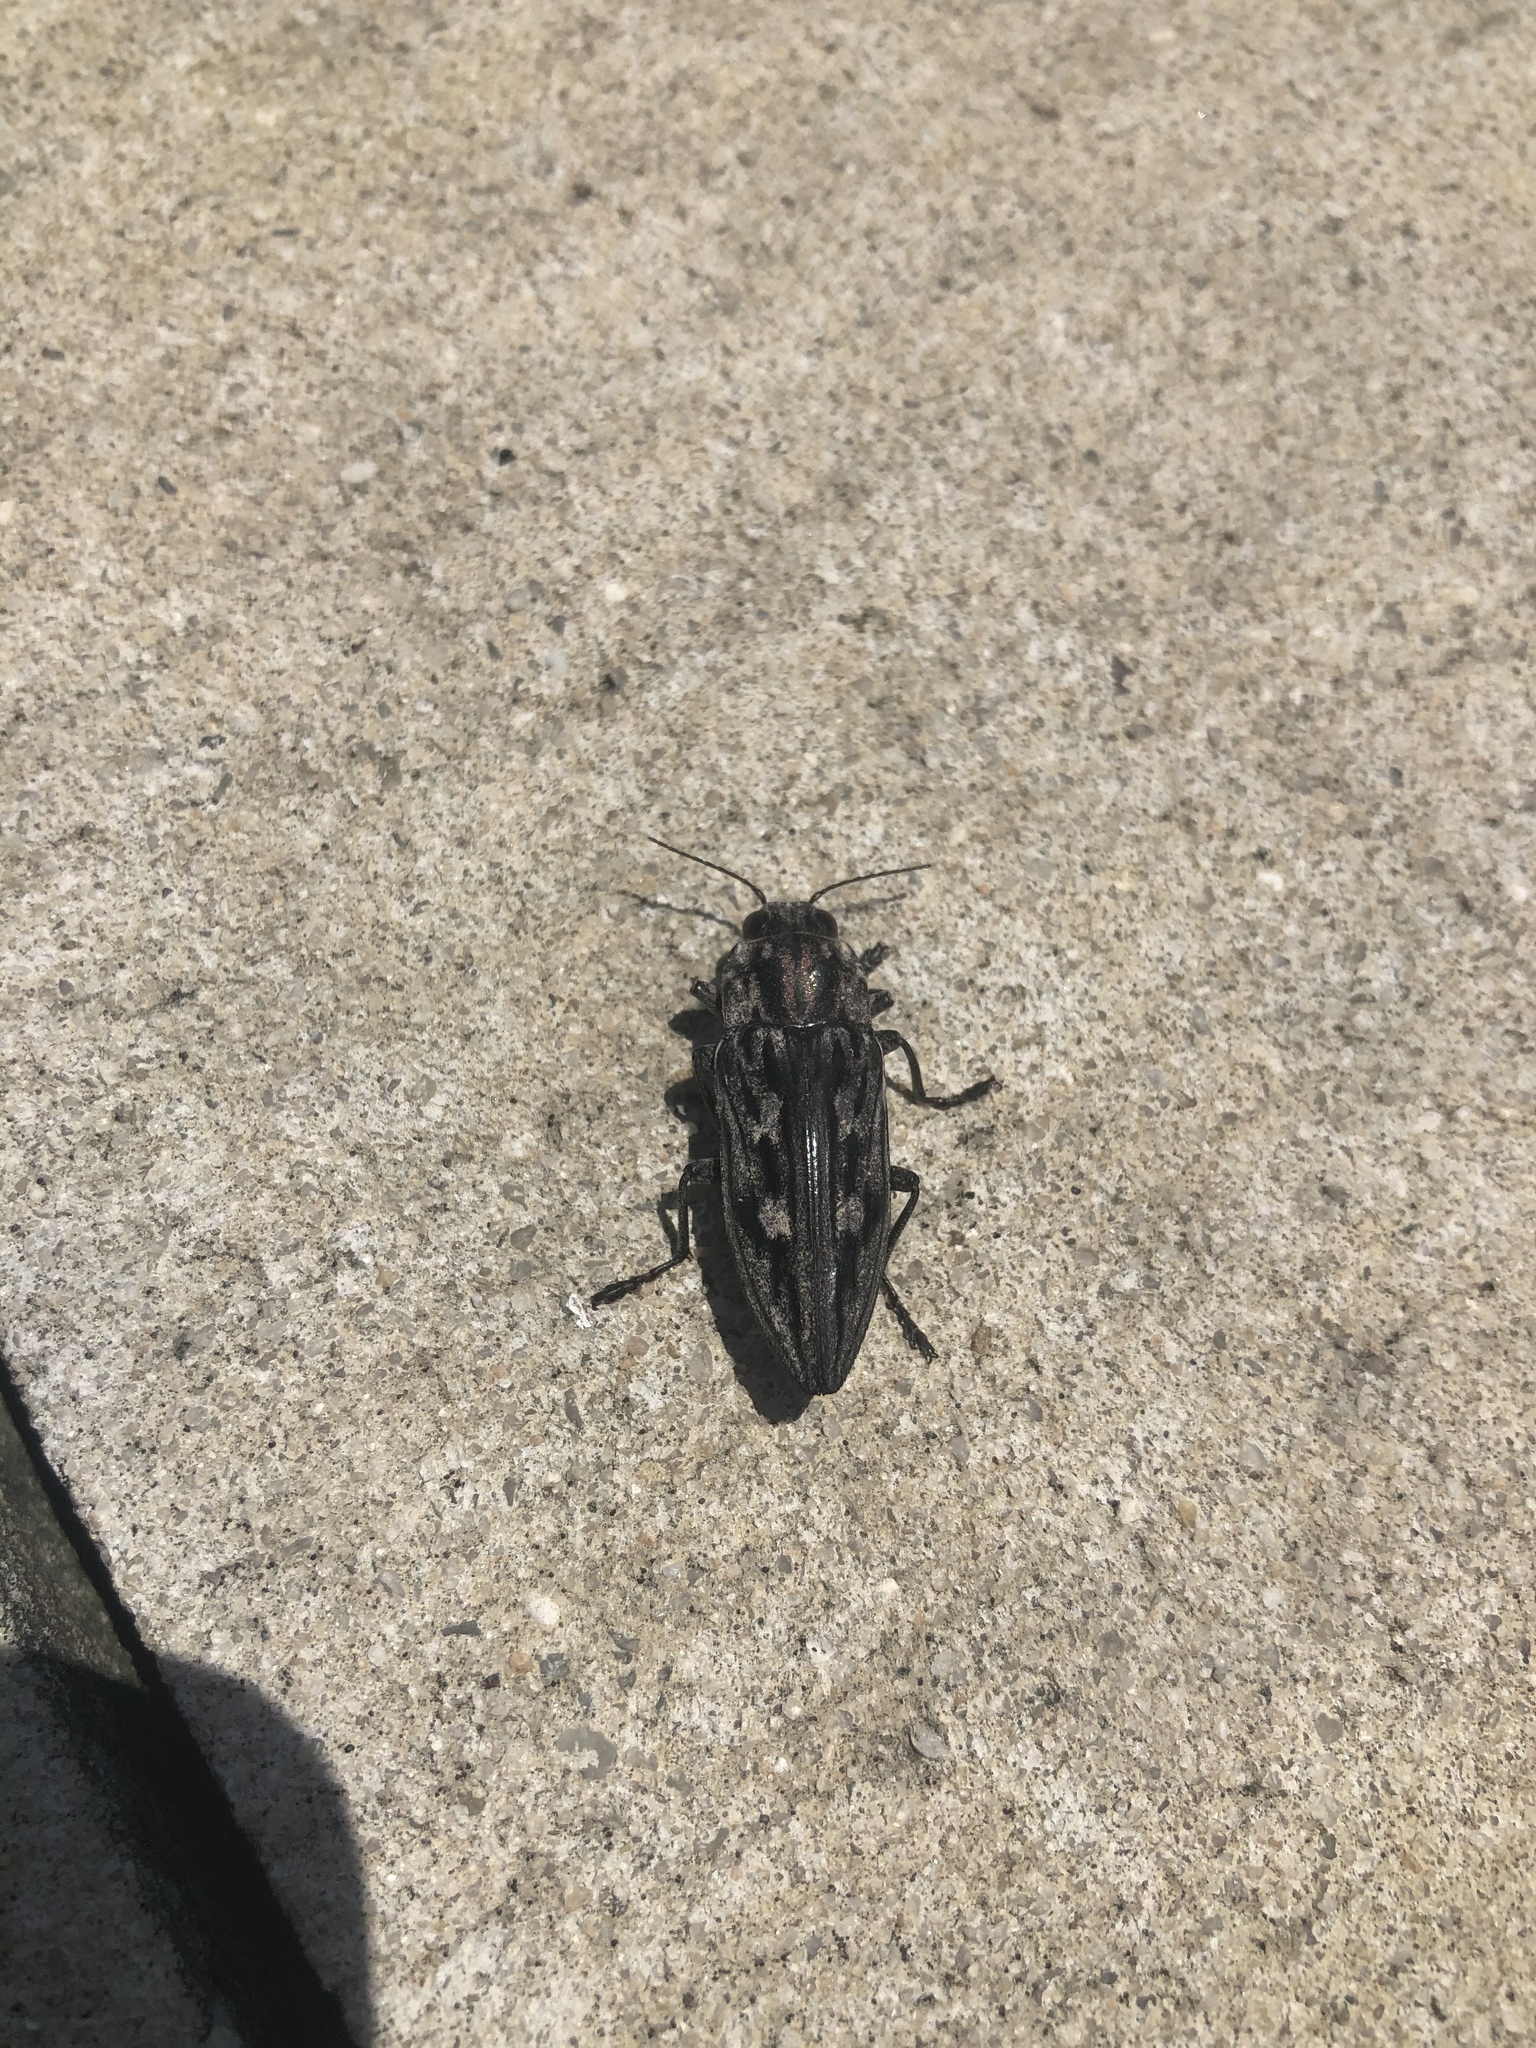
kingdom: Animalia
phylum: Arthropoda
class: Insecta
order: Coleoptera
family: Buprestidae
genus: Chalcophora
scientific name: Chalcophora virginiensis
